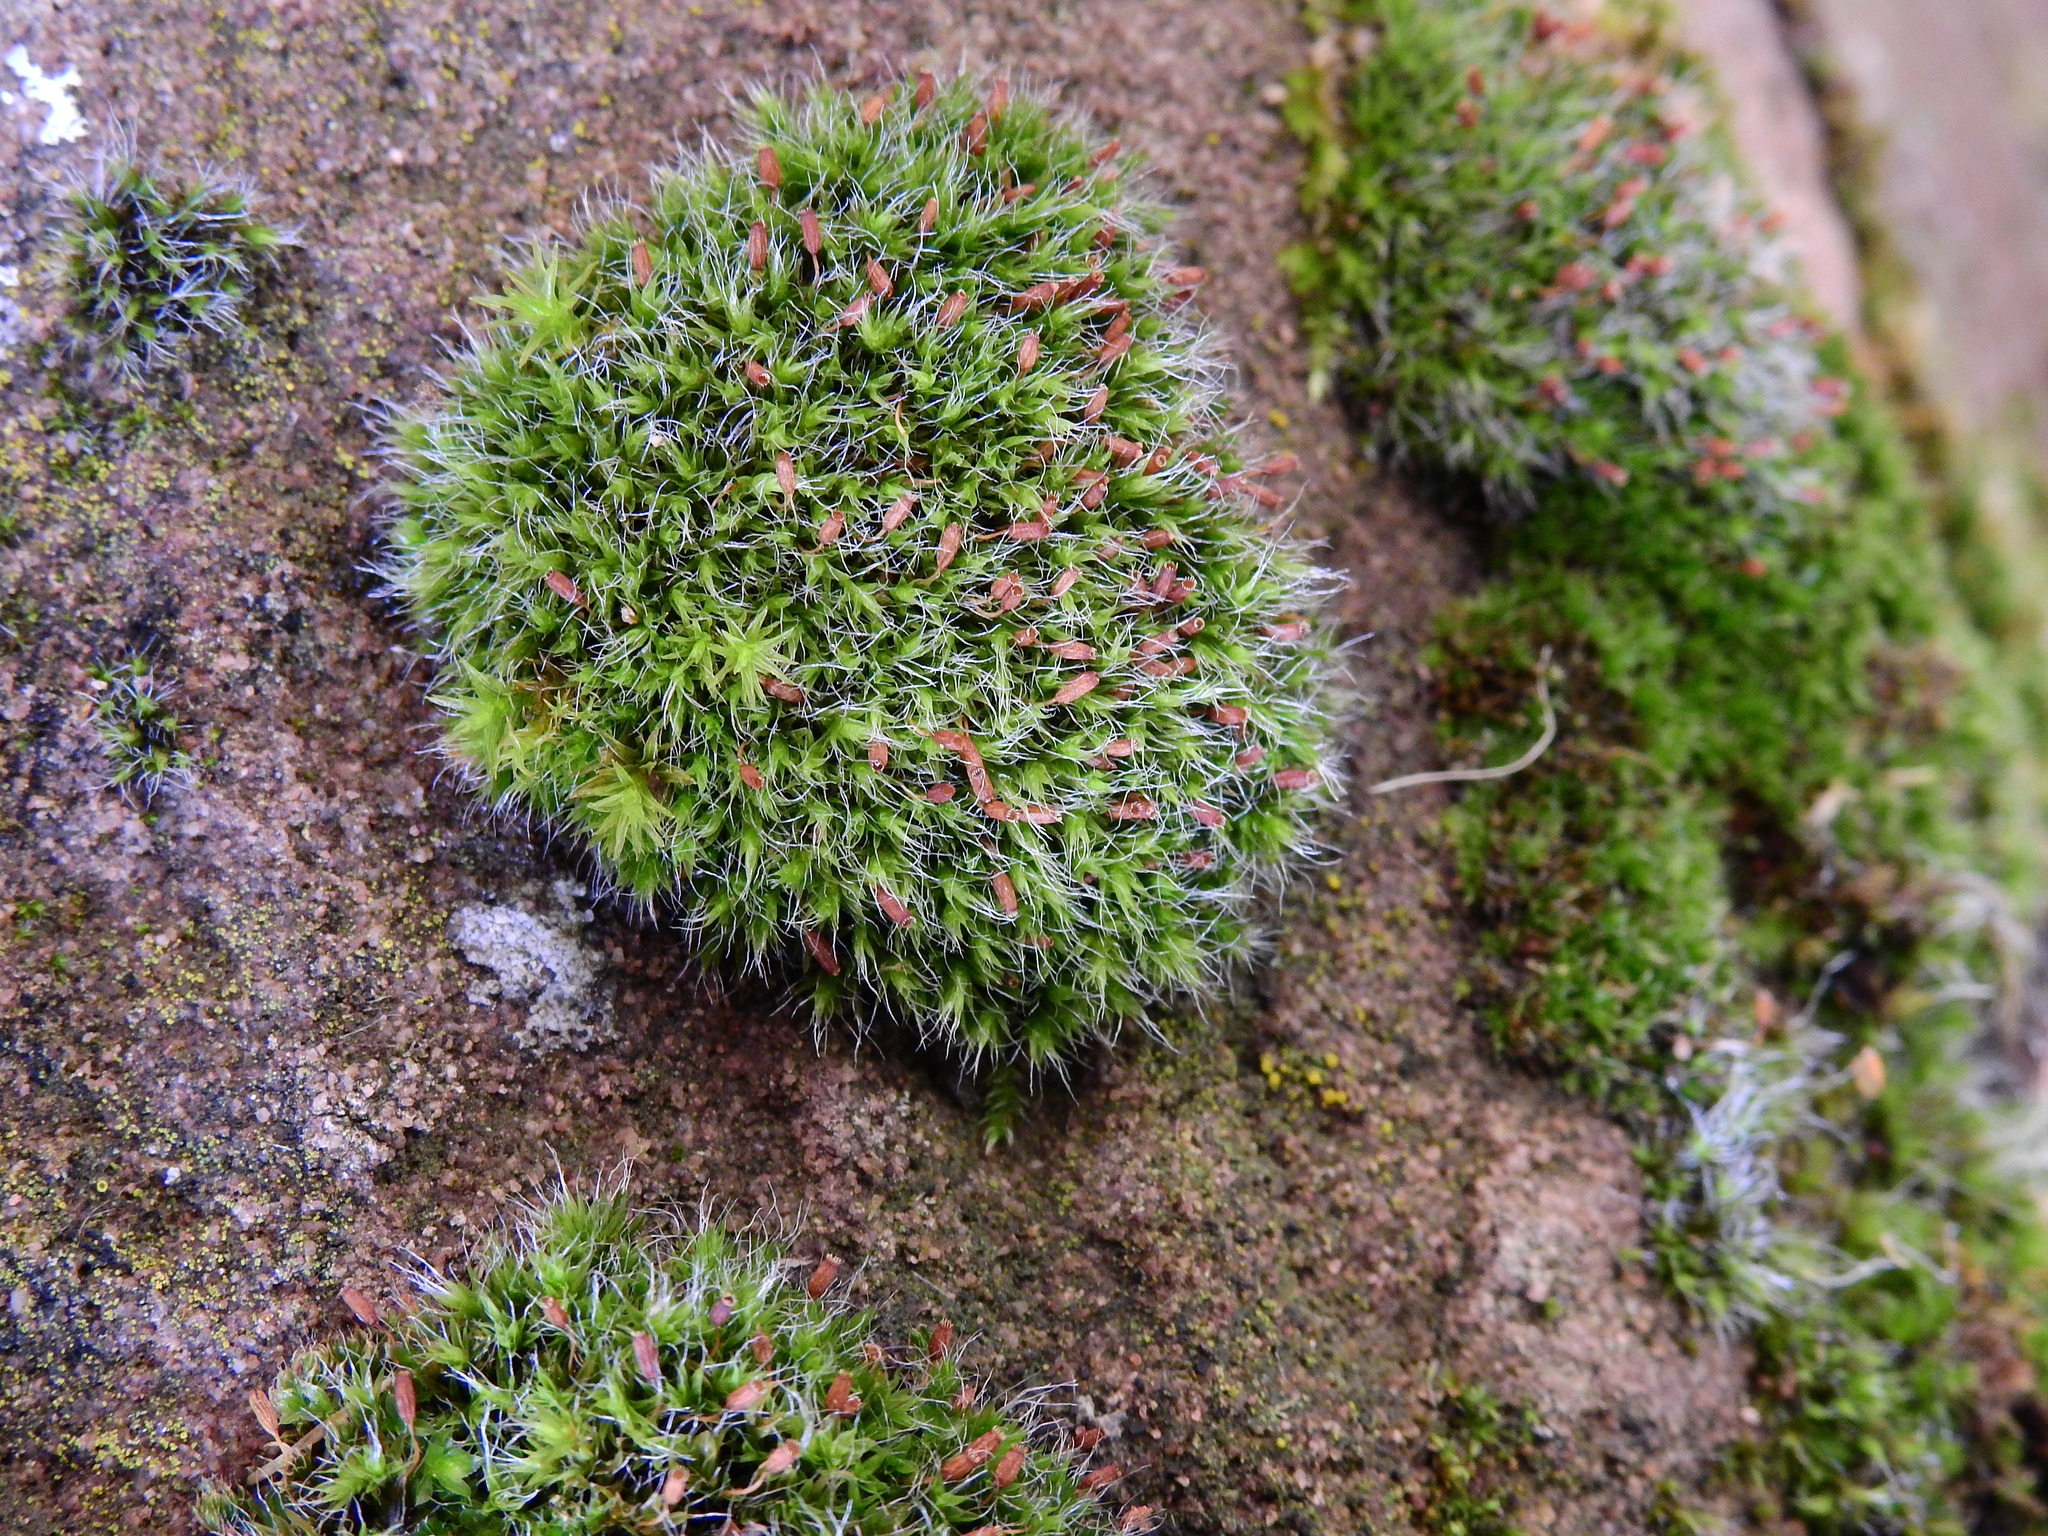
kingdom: Plantae
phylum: Bryophyta
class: Bryopsida
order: Grimmiales
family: Grimmiaceae
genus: Grimmia
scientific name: Grimmia pulvinata
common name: Grey-cushioned grimmia
